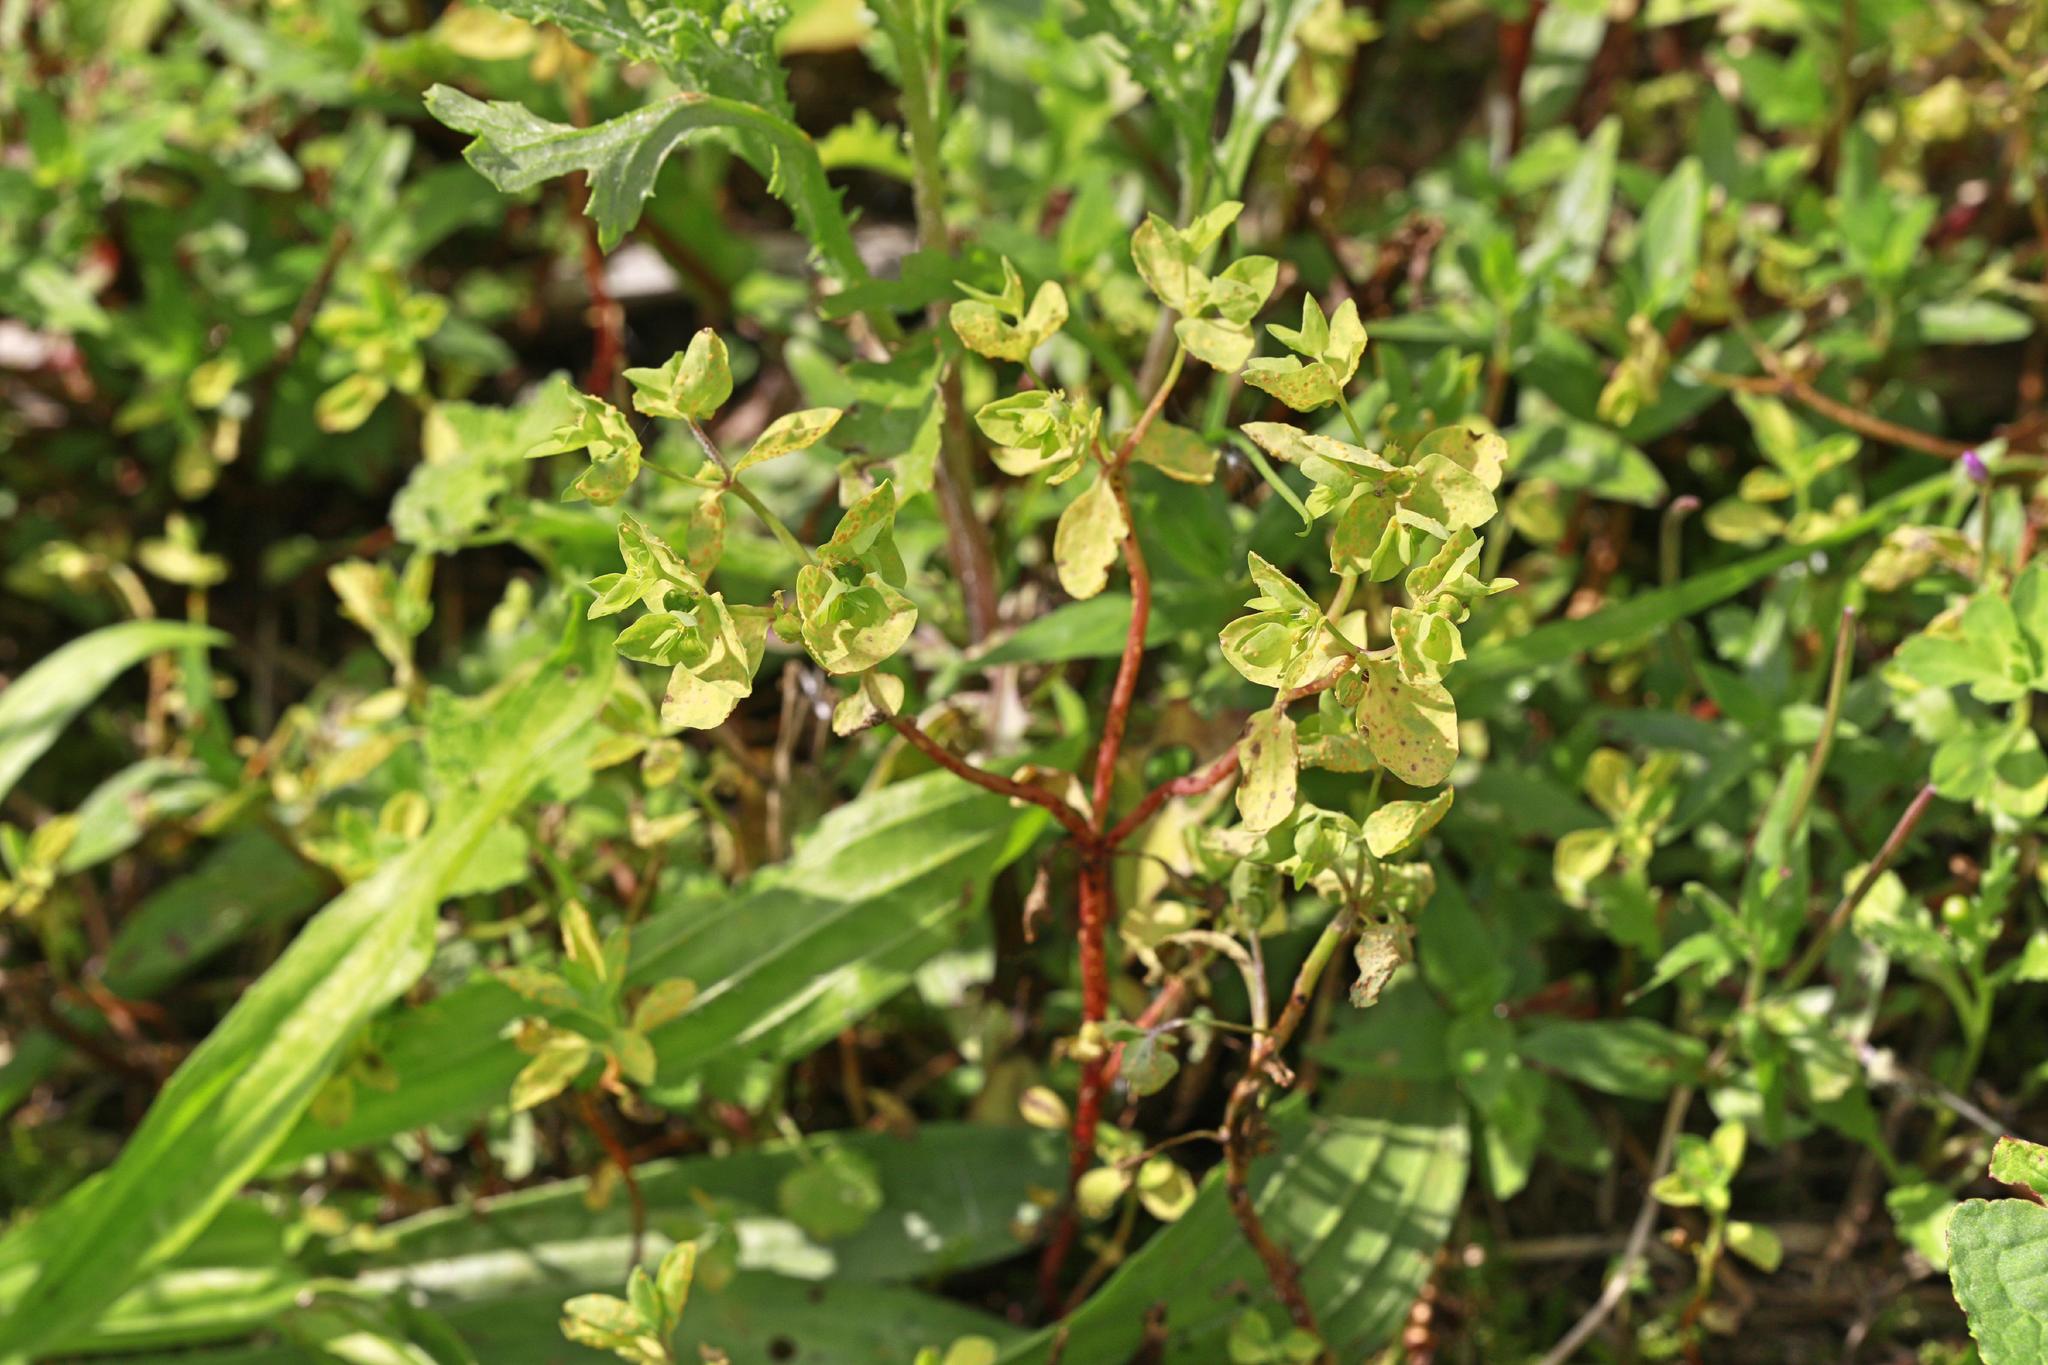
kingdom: Plantae
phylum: Tracheophyta
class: Magnoliopsida
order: Malpighiales
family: Euphorbiaceae
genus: Euphorbia
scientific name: Euphorbia peplus
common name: Petty spurge
